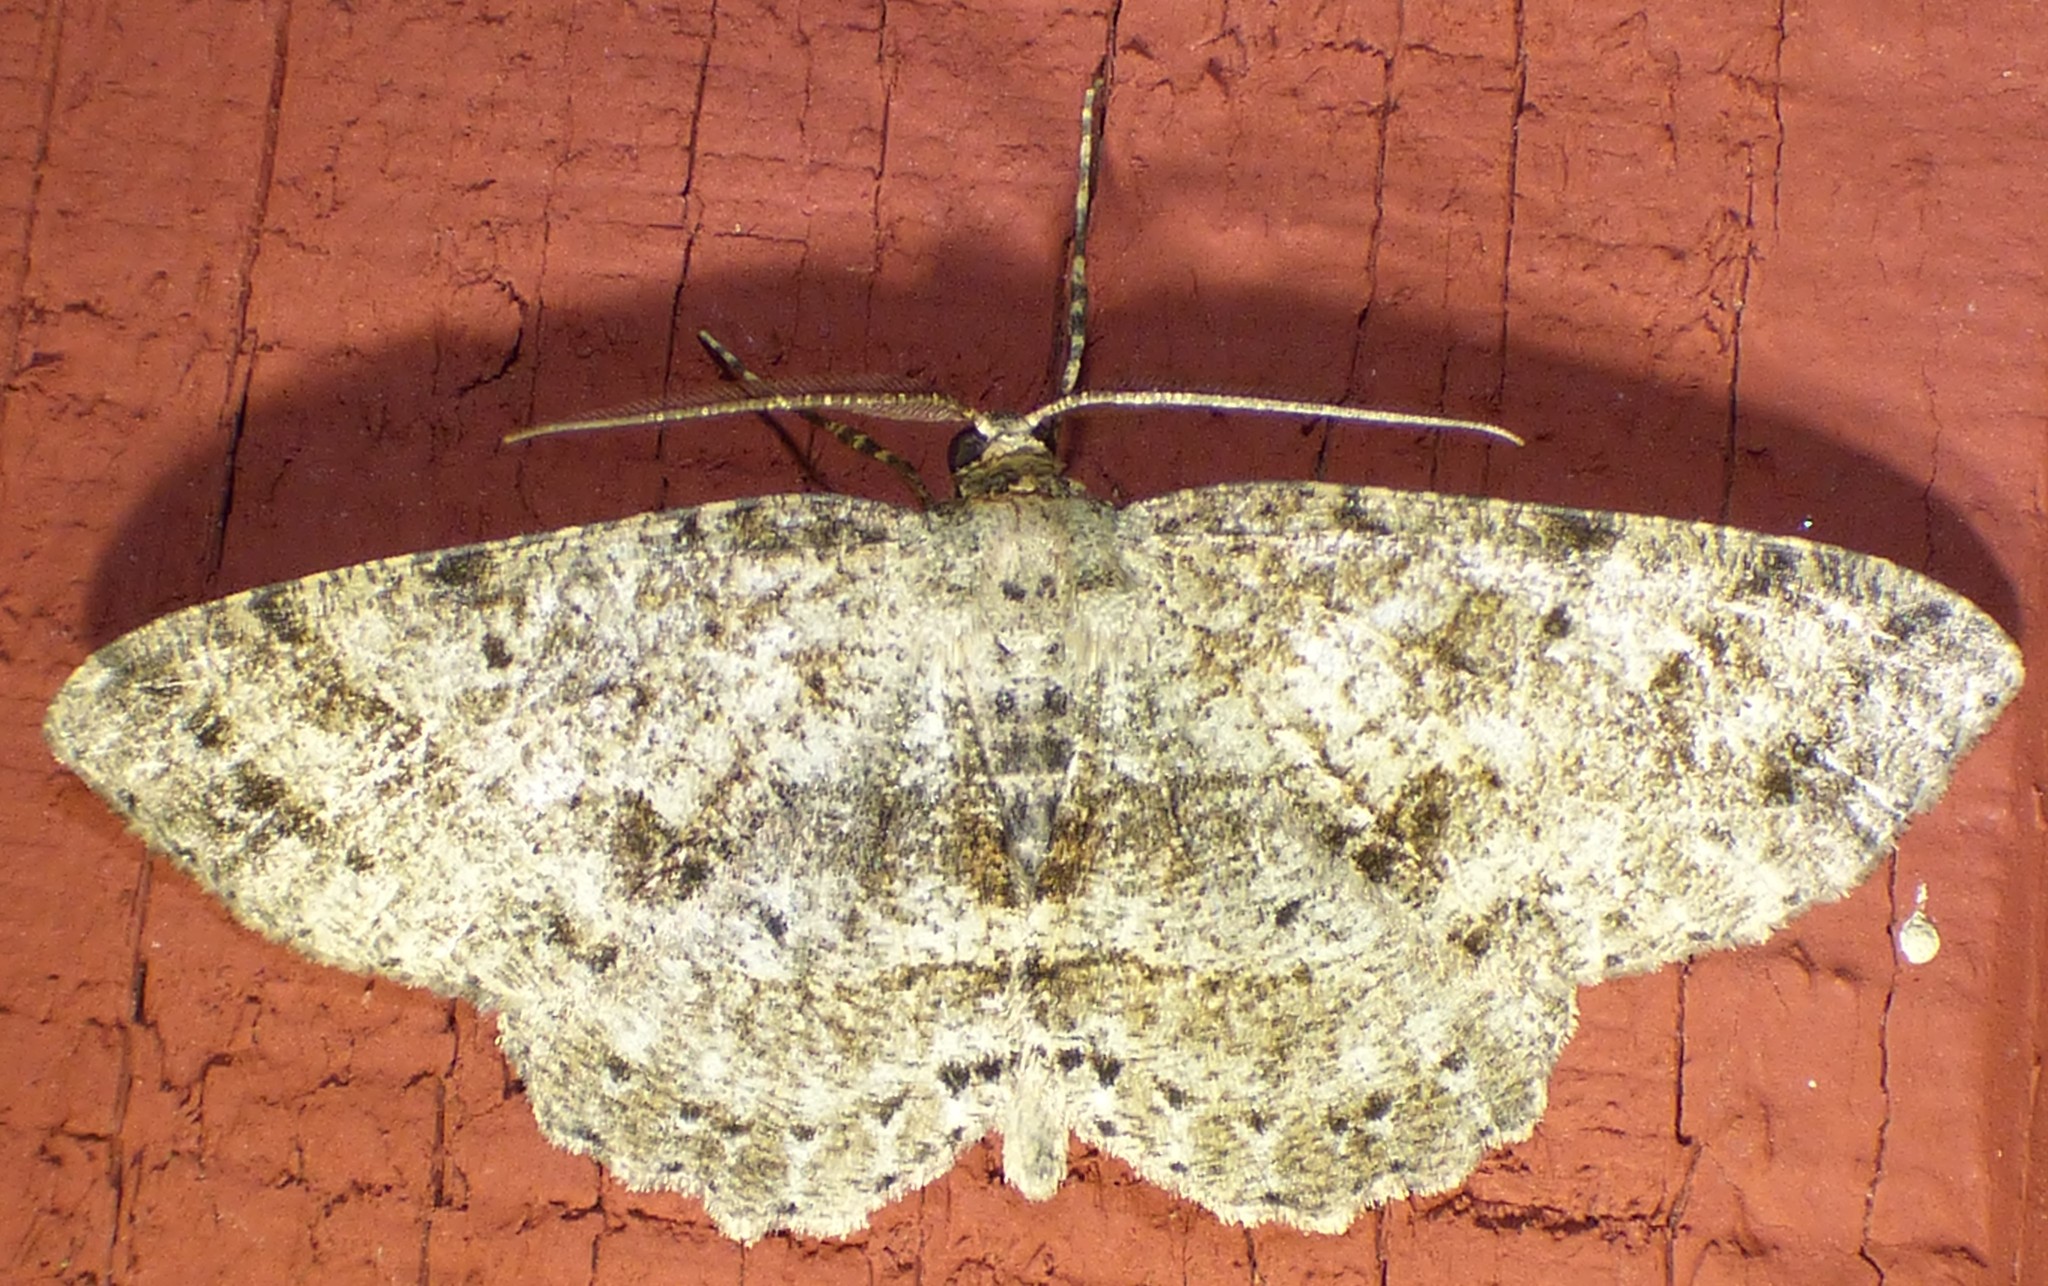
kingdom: Animalia
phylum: Arthropoda
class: Insecta
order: Lepidoptera
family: Geometridae
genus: Melanolophia
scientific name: Melanolophia canadaria
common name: Canadian melanolophia
